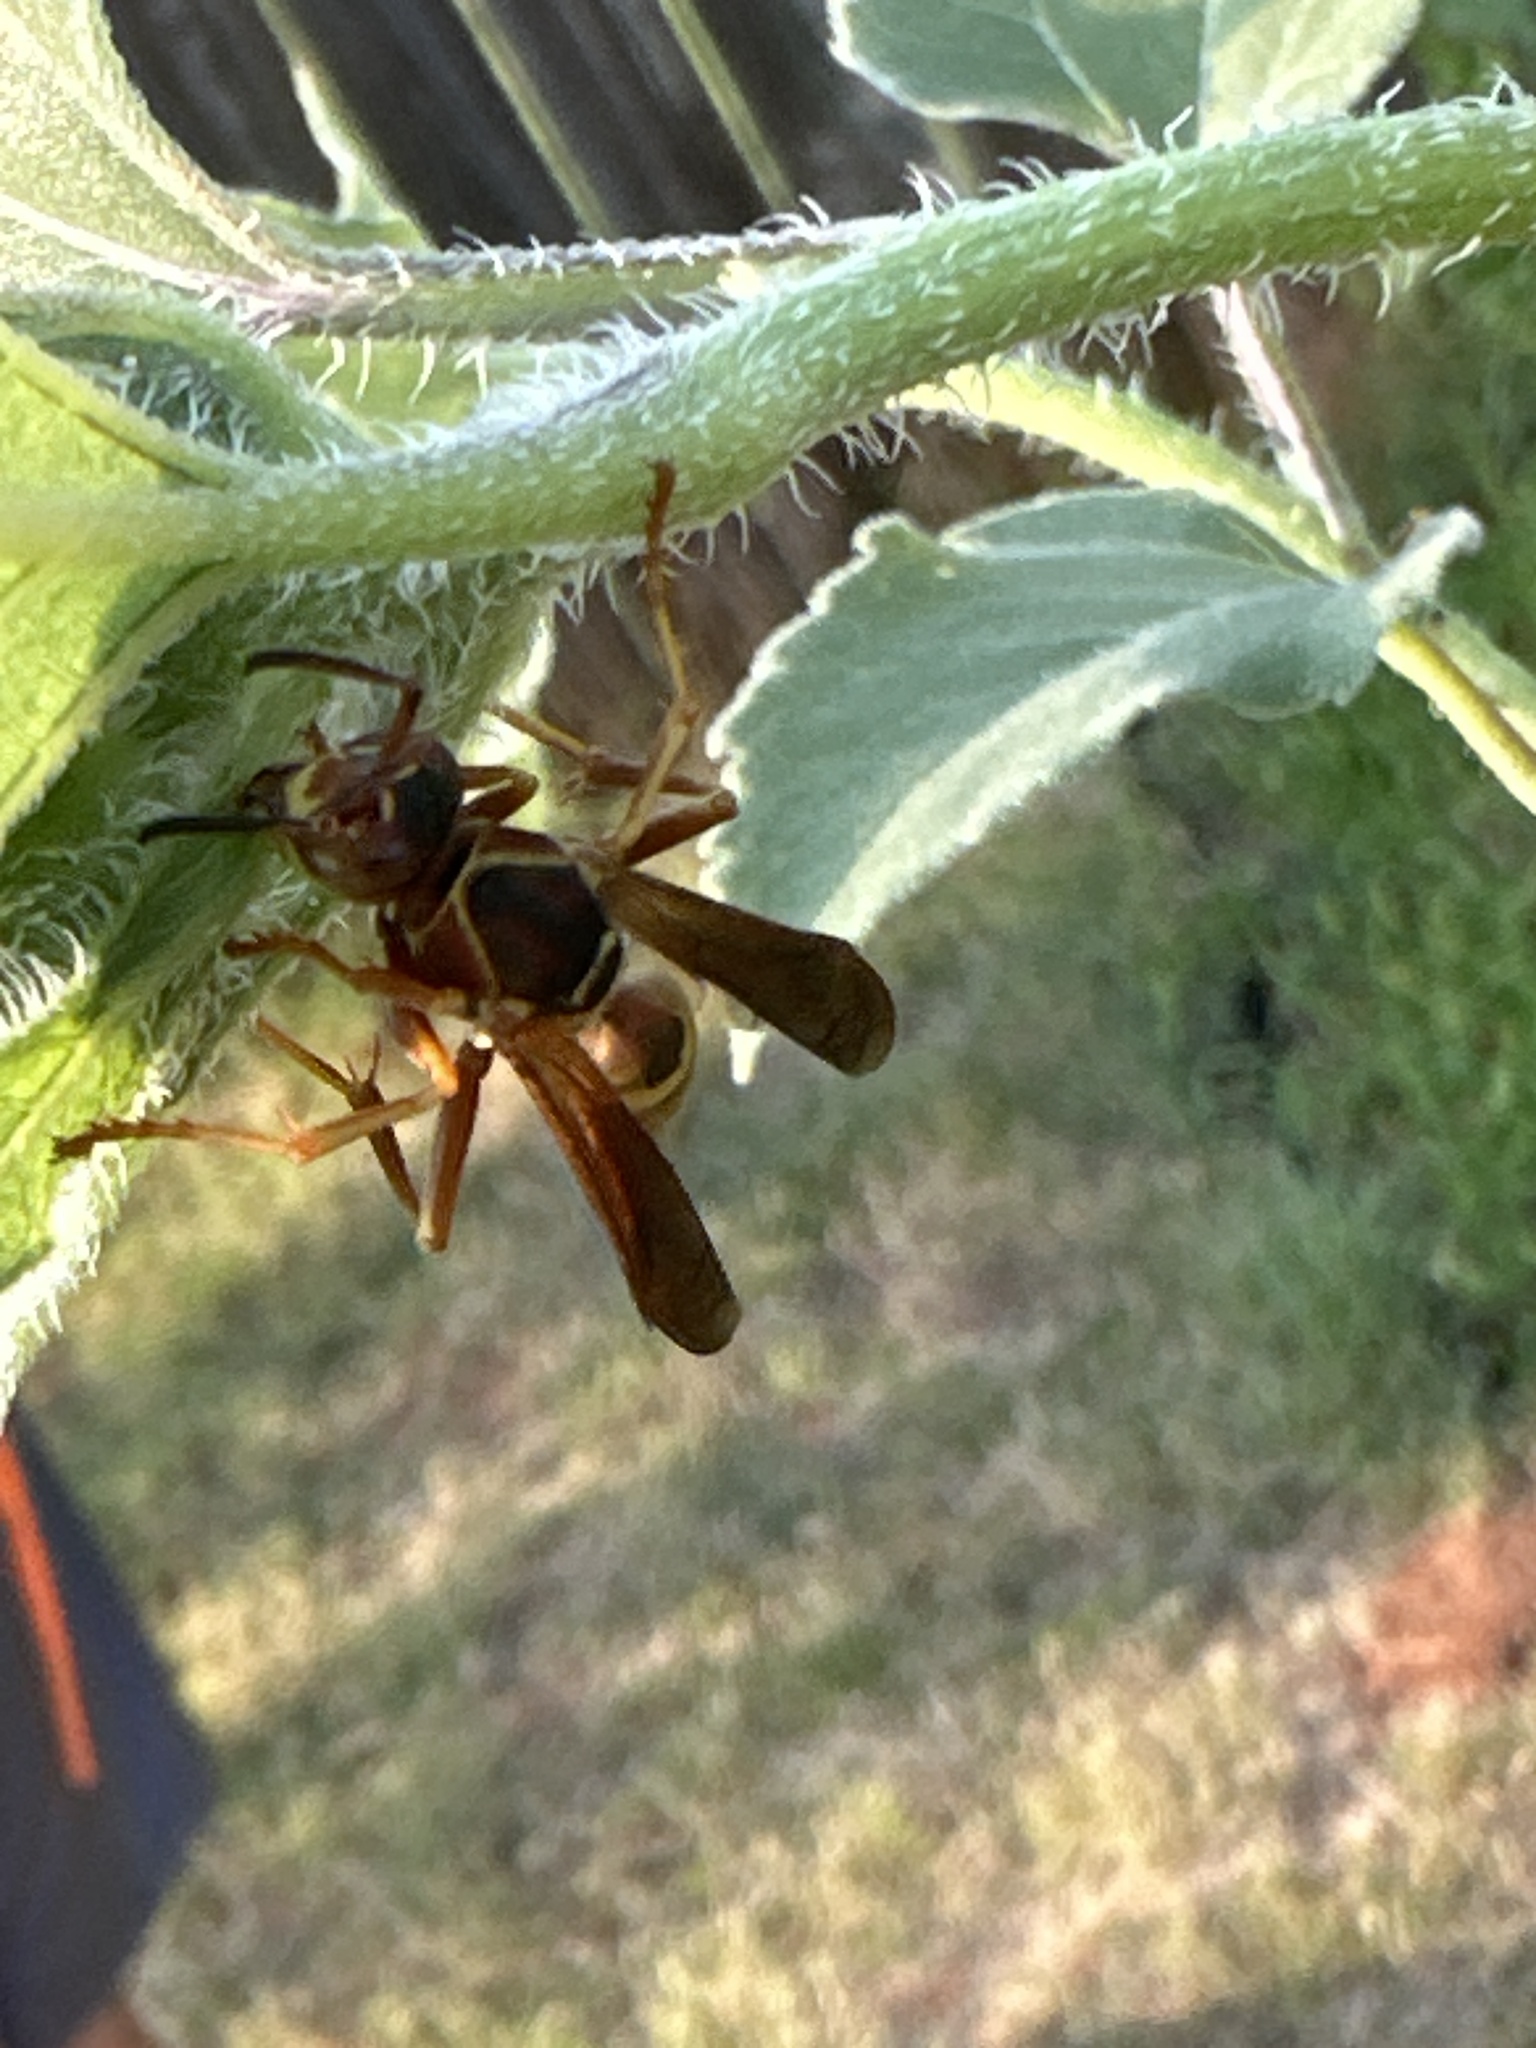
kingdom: Animalia
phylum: Arthropoda
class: Insecta
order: Hymenoptera
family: Eumenidae
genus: Polistes
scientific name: Polistes fuscatus
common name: Dark paper wasp
